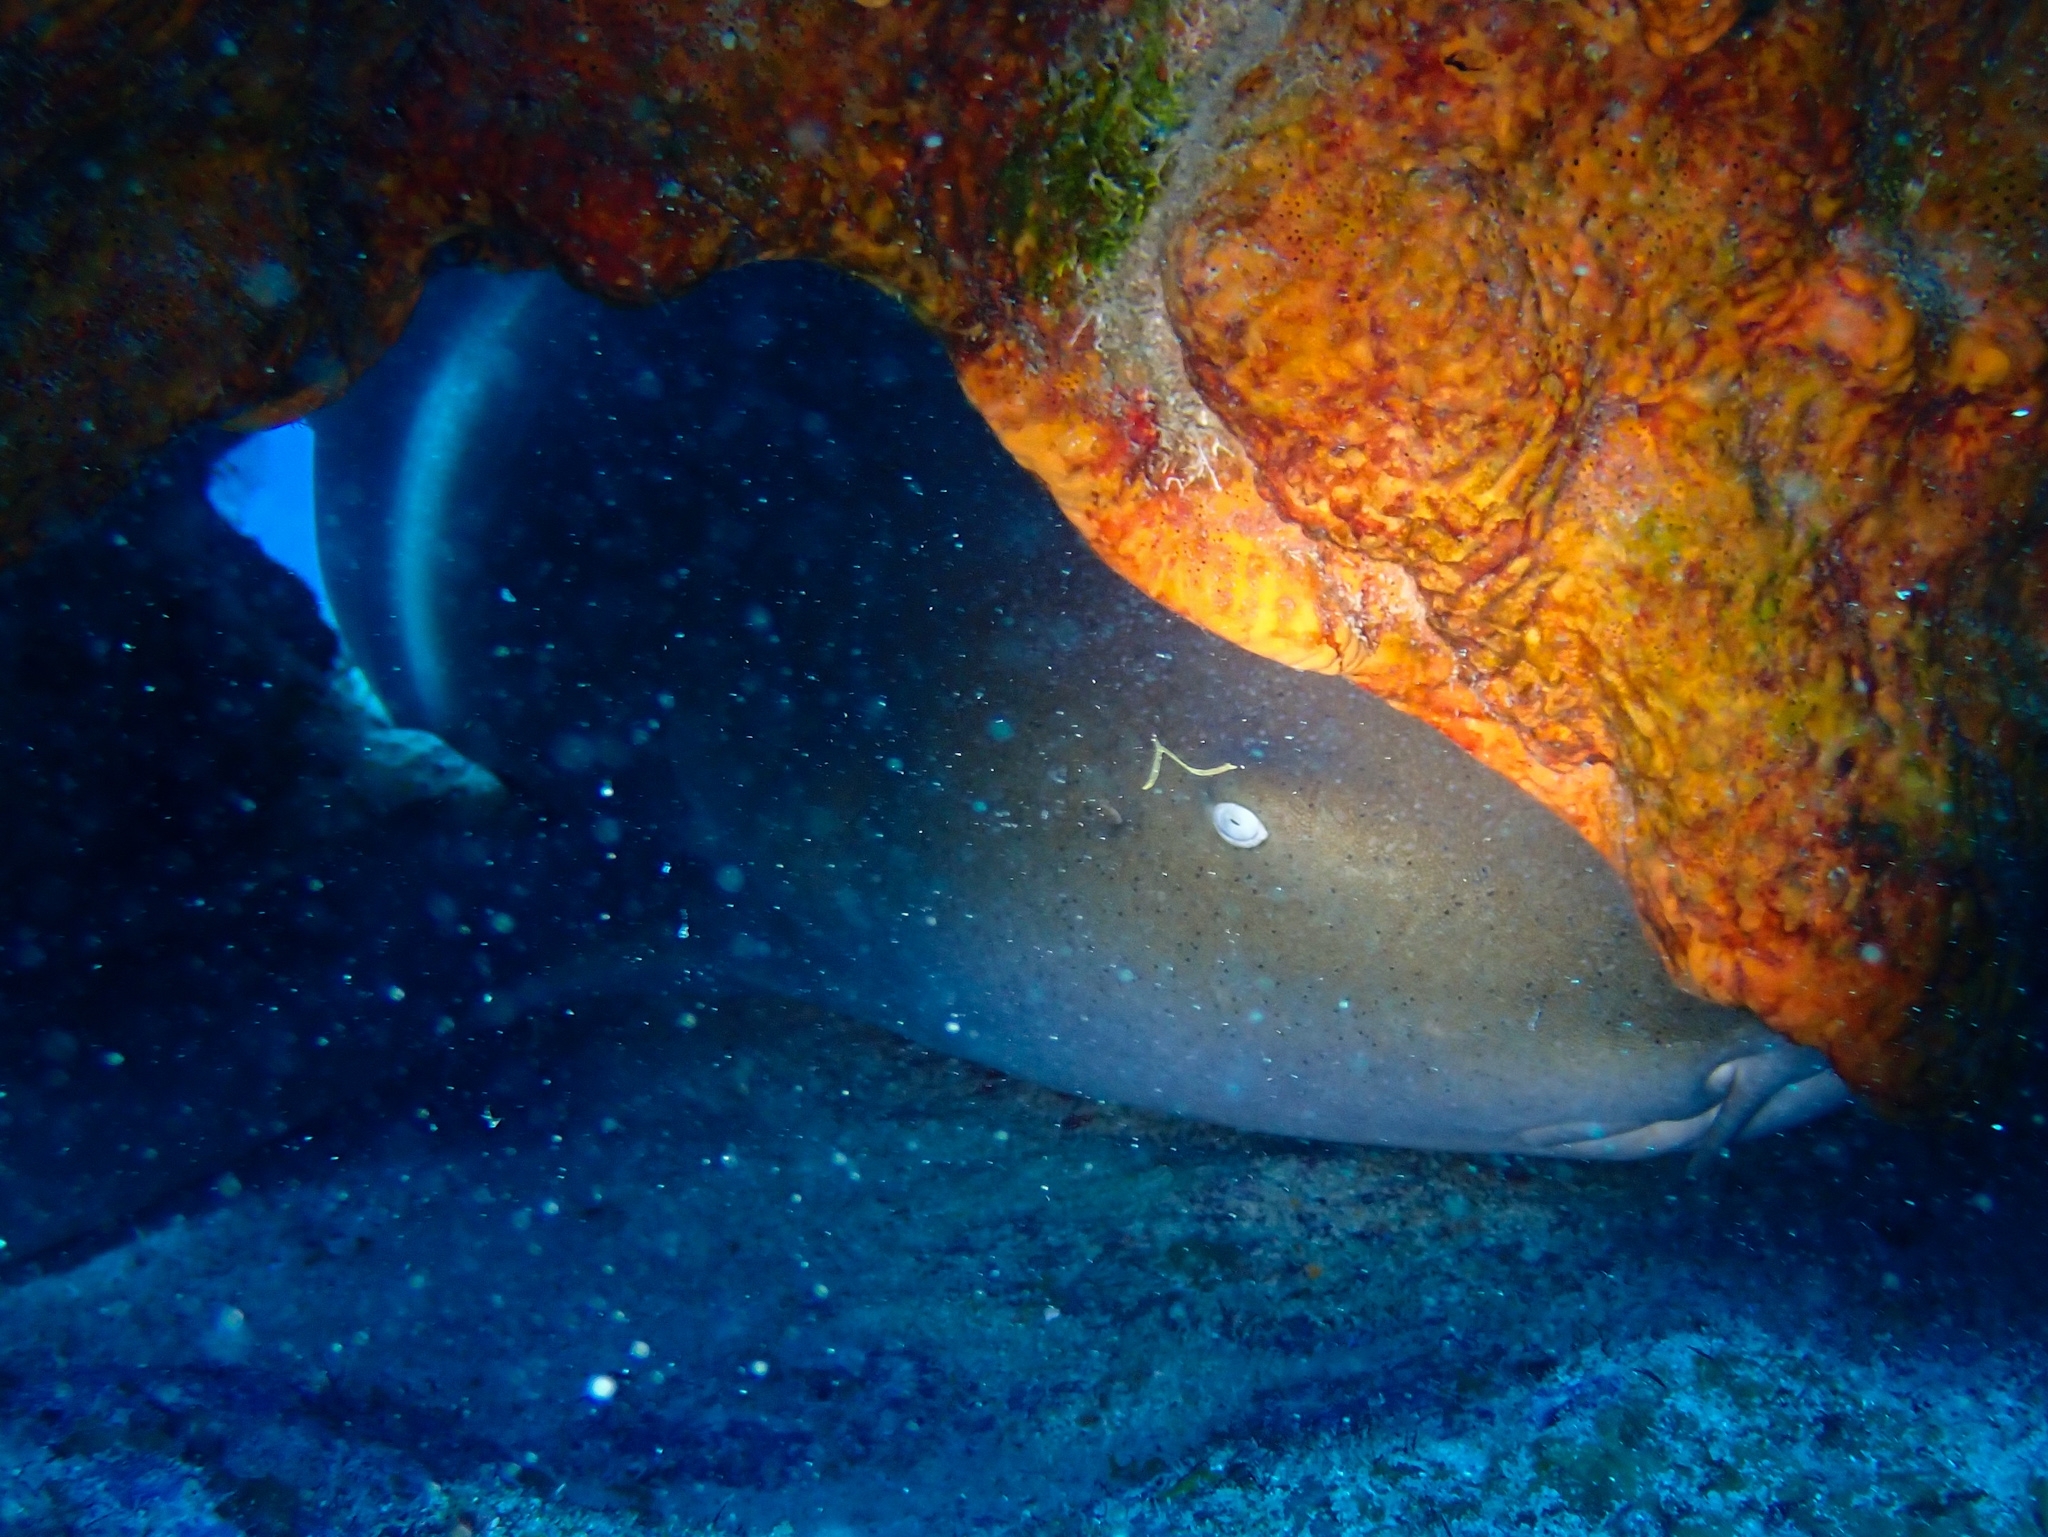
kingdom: Animalia
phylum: Chordata
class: Elasmobranchii
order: Orectolobiformes
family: Ginglymostomatidae
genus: Ginglymostoma
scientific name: Ginglymostoma cirratum
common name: Nurse shark
